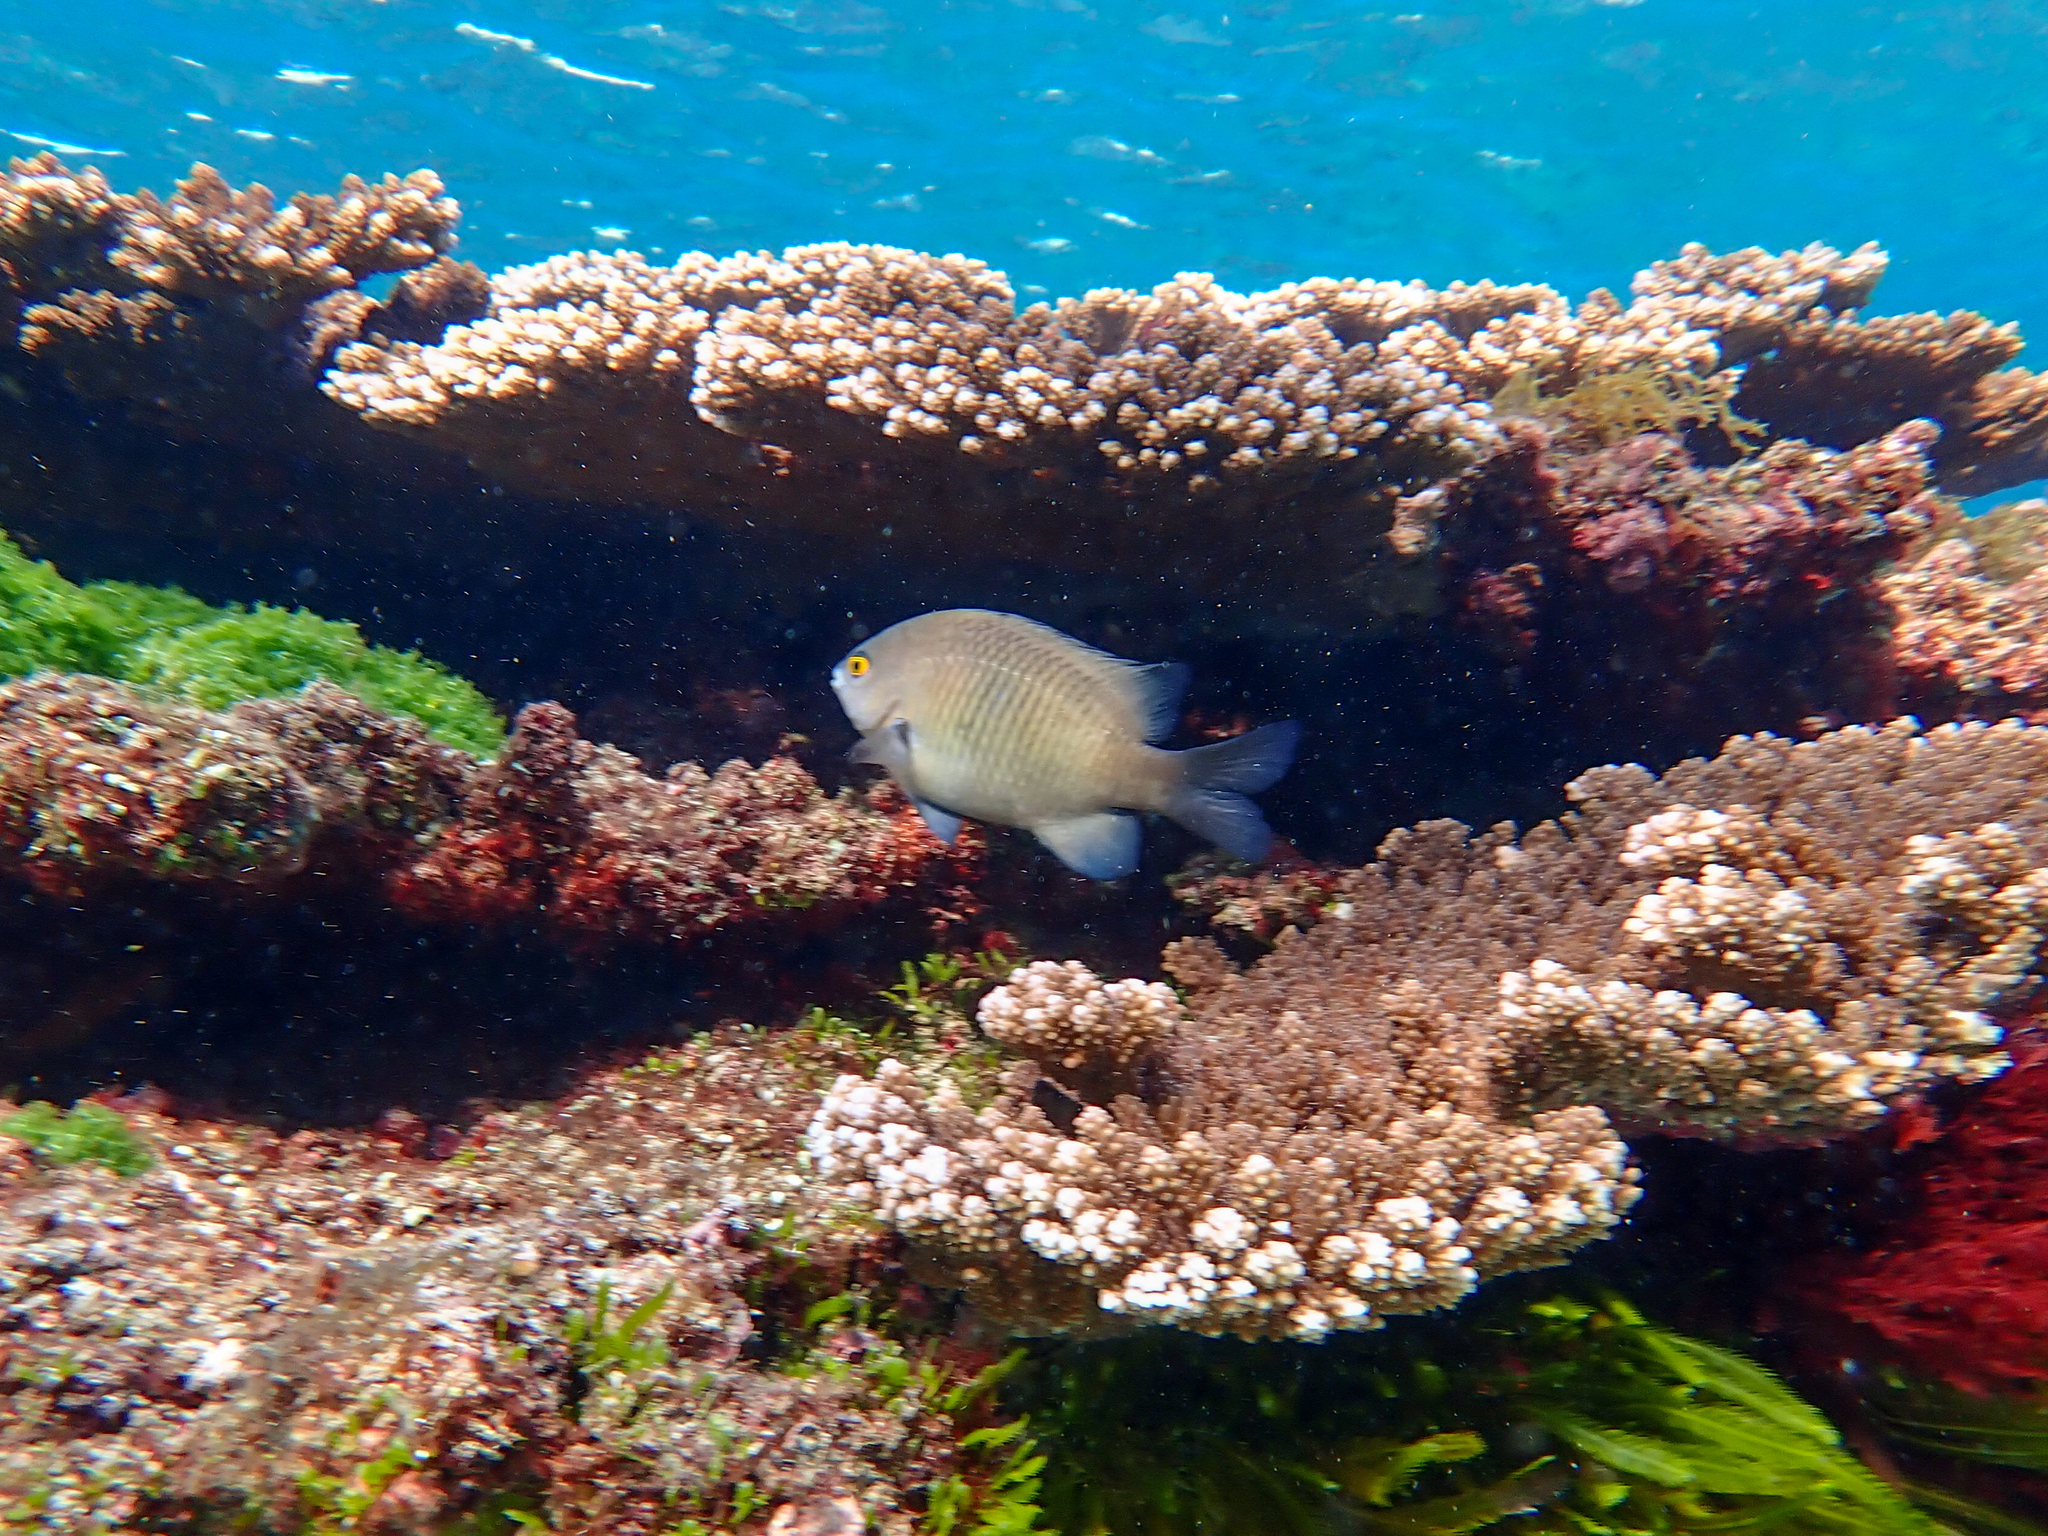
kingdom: Animalia
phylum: Chordata
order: Perciformes
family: Pomacentridae
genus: Stegastes
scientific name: Stegastes fasciolatus
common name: Pacific gregory
